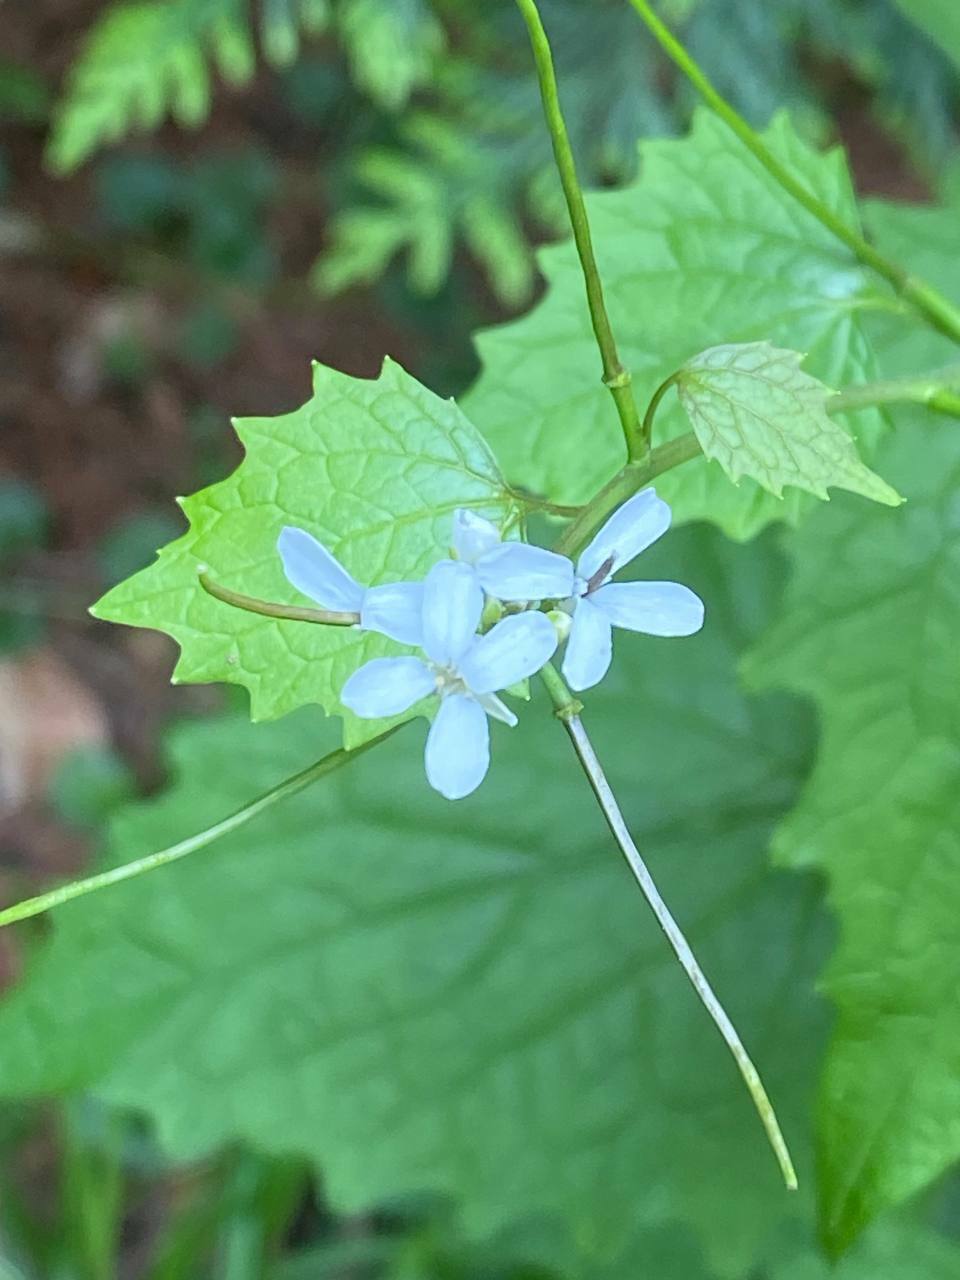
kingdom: Plantae
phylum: Tracheophyta
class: Magnoliopsida
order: Brassicales
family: Brassicaceae
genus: Alliaria
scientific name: Alliaria petiolata
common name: Garlic mustard
